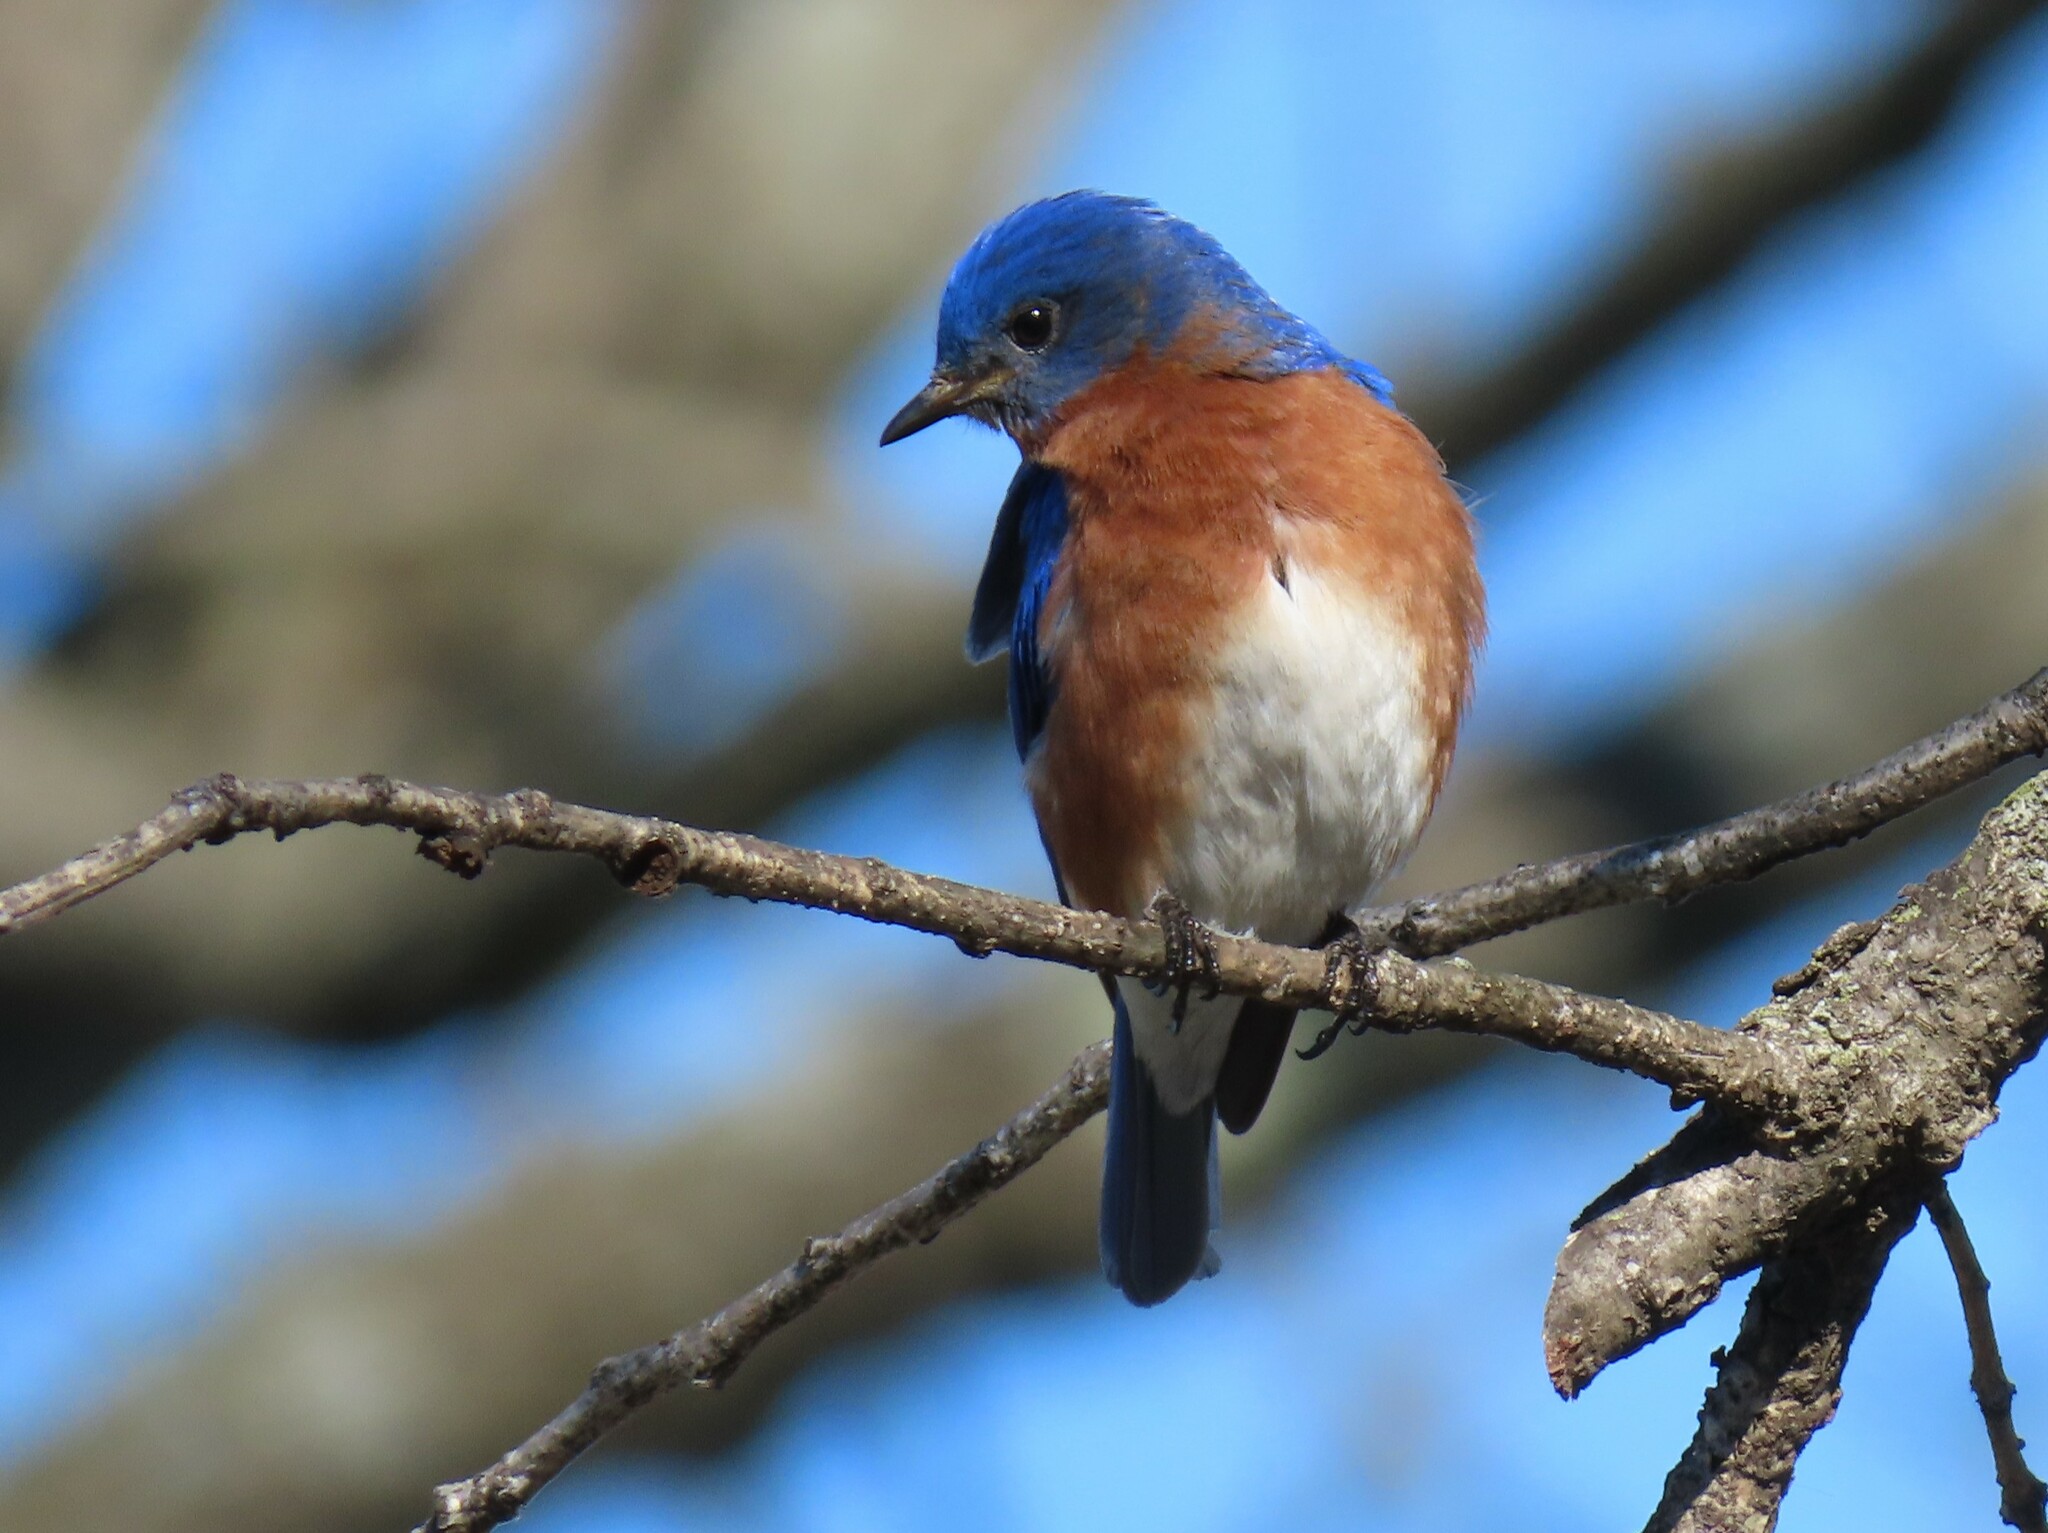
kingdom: Animalia
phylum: Chordata
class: Aves
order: Passeriformes
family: Turdidae
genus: Sialia
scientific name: Sialia sialis
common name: Eastern bluebird
